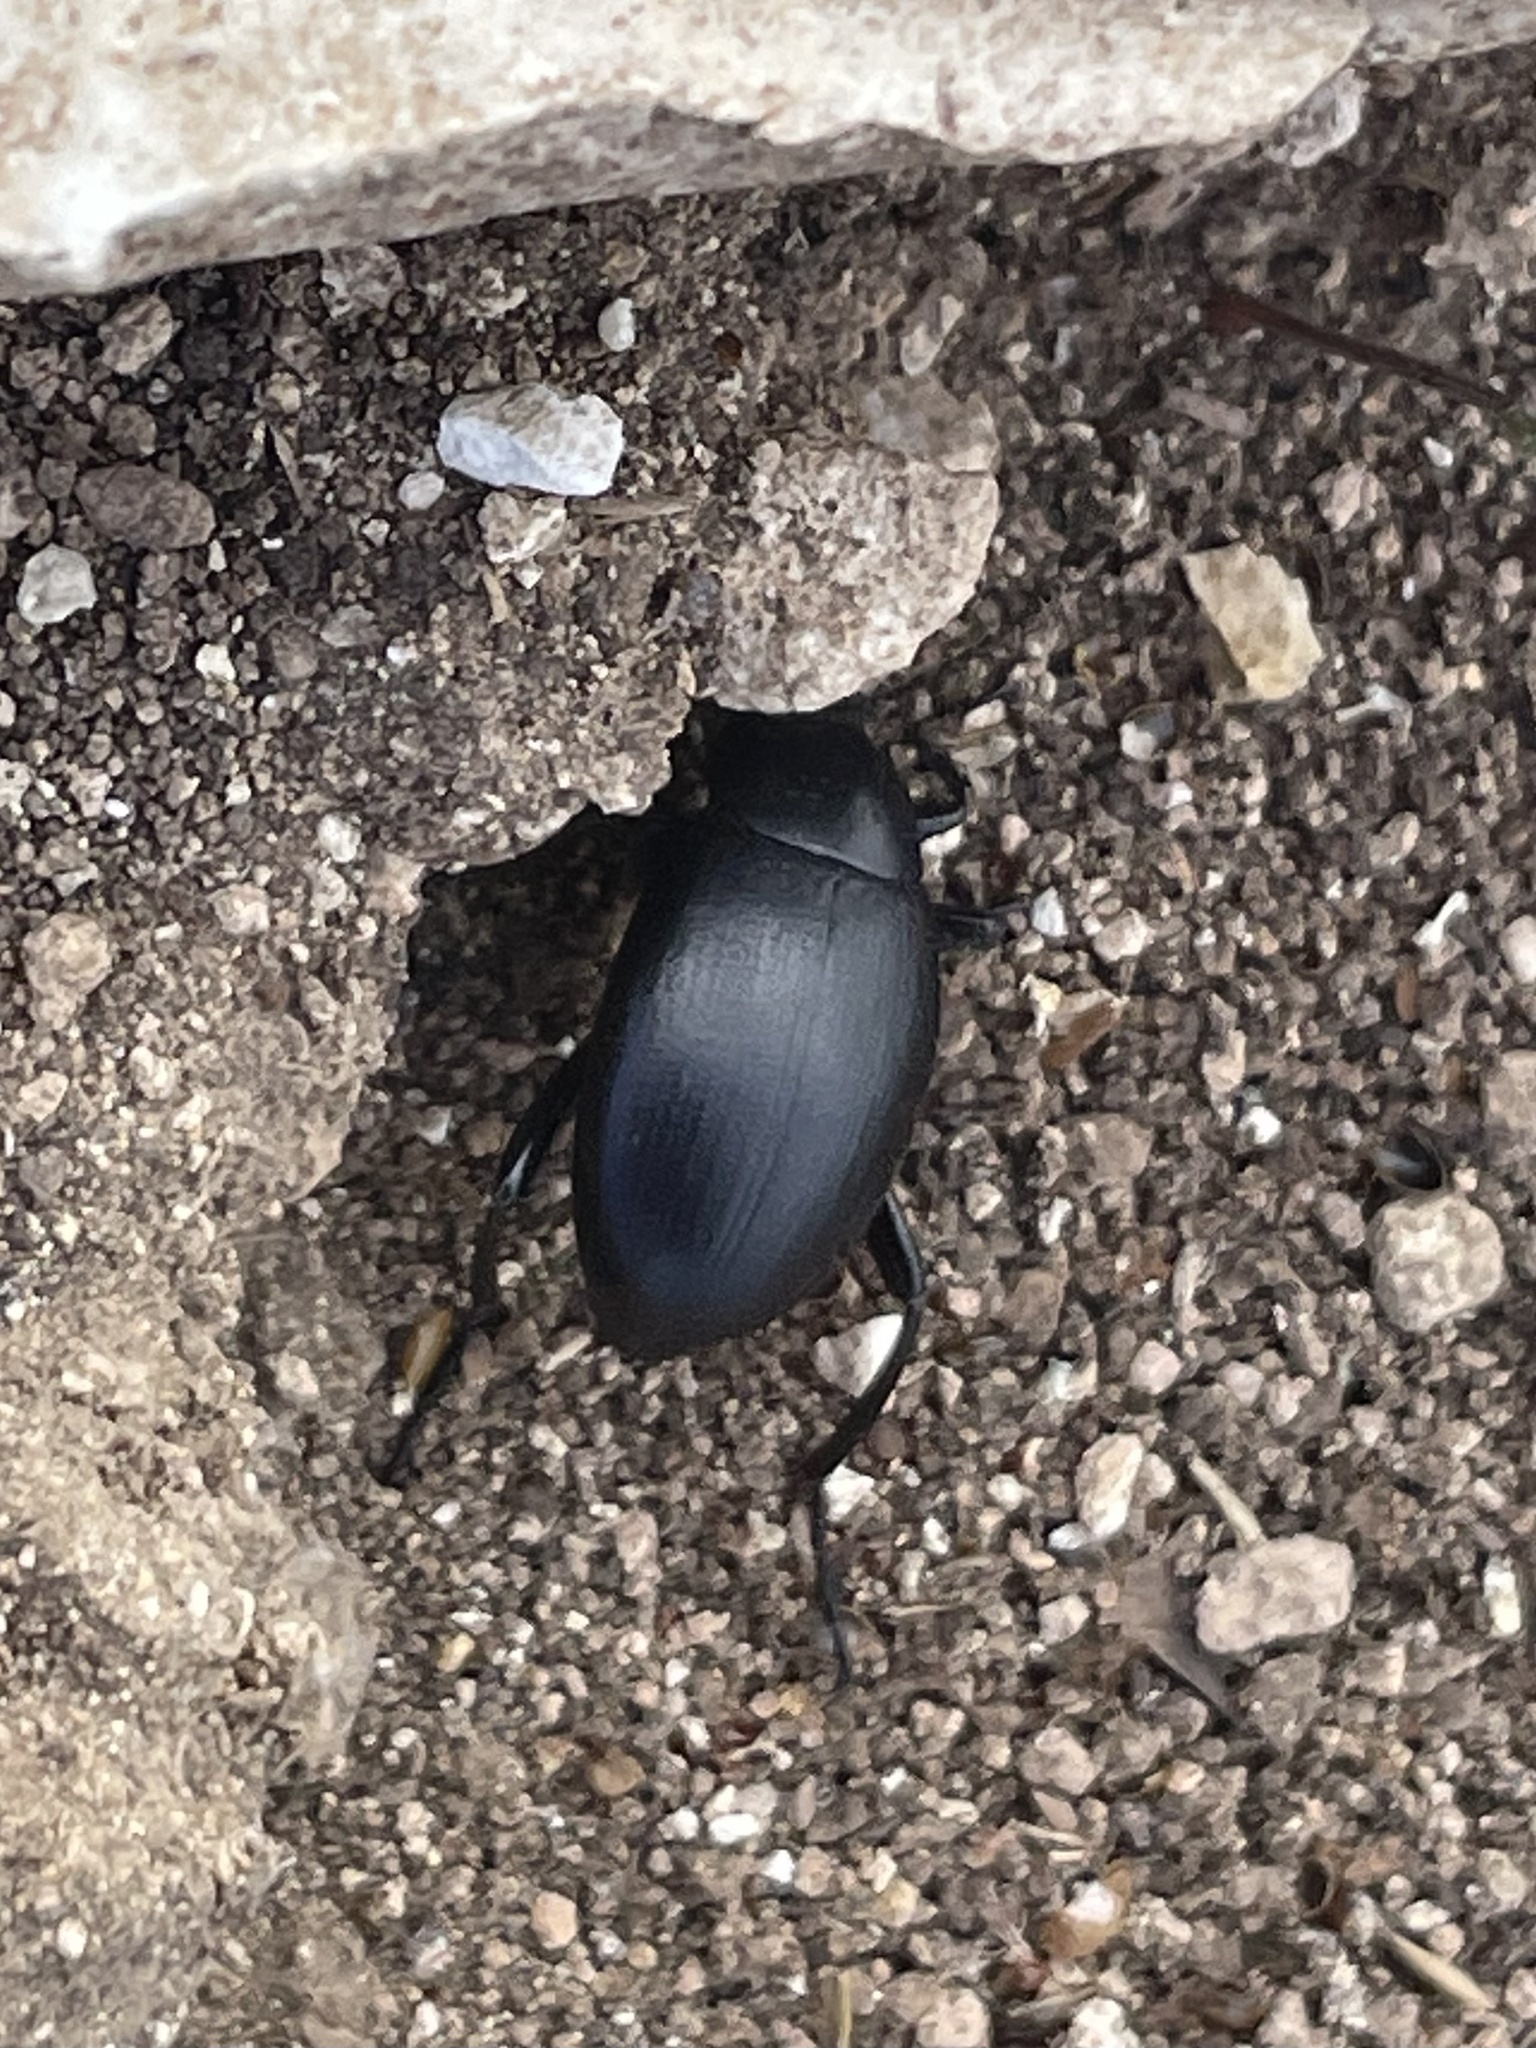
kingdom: Animalia
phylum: Arthropoda
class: Insecta
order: Coleoptera
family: Tenebrionidae
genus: Eleodes
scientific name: Eleodes fusiformis
